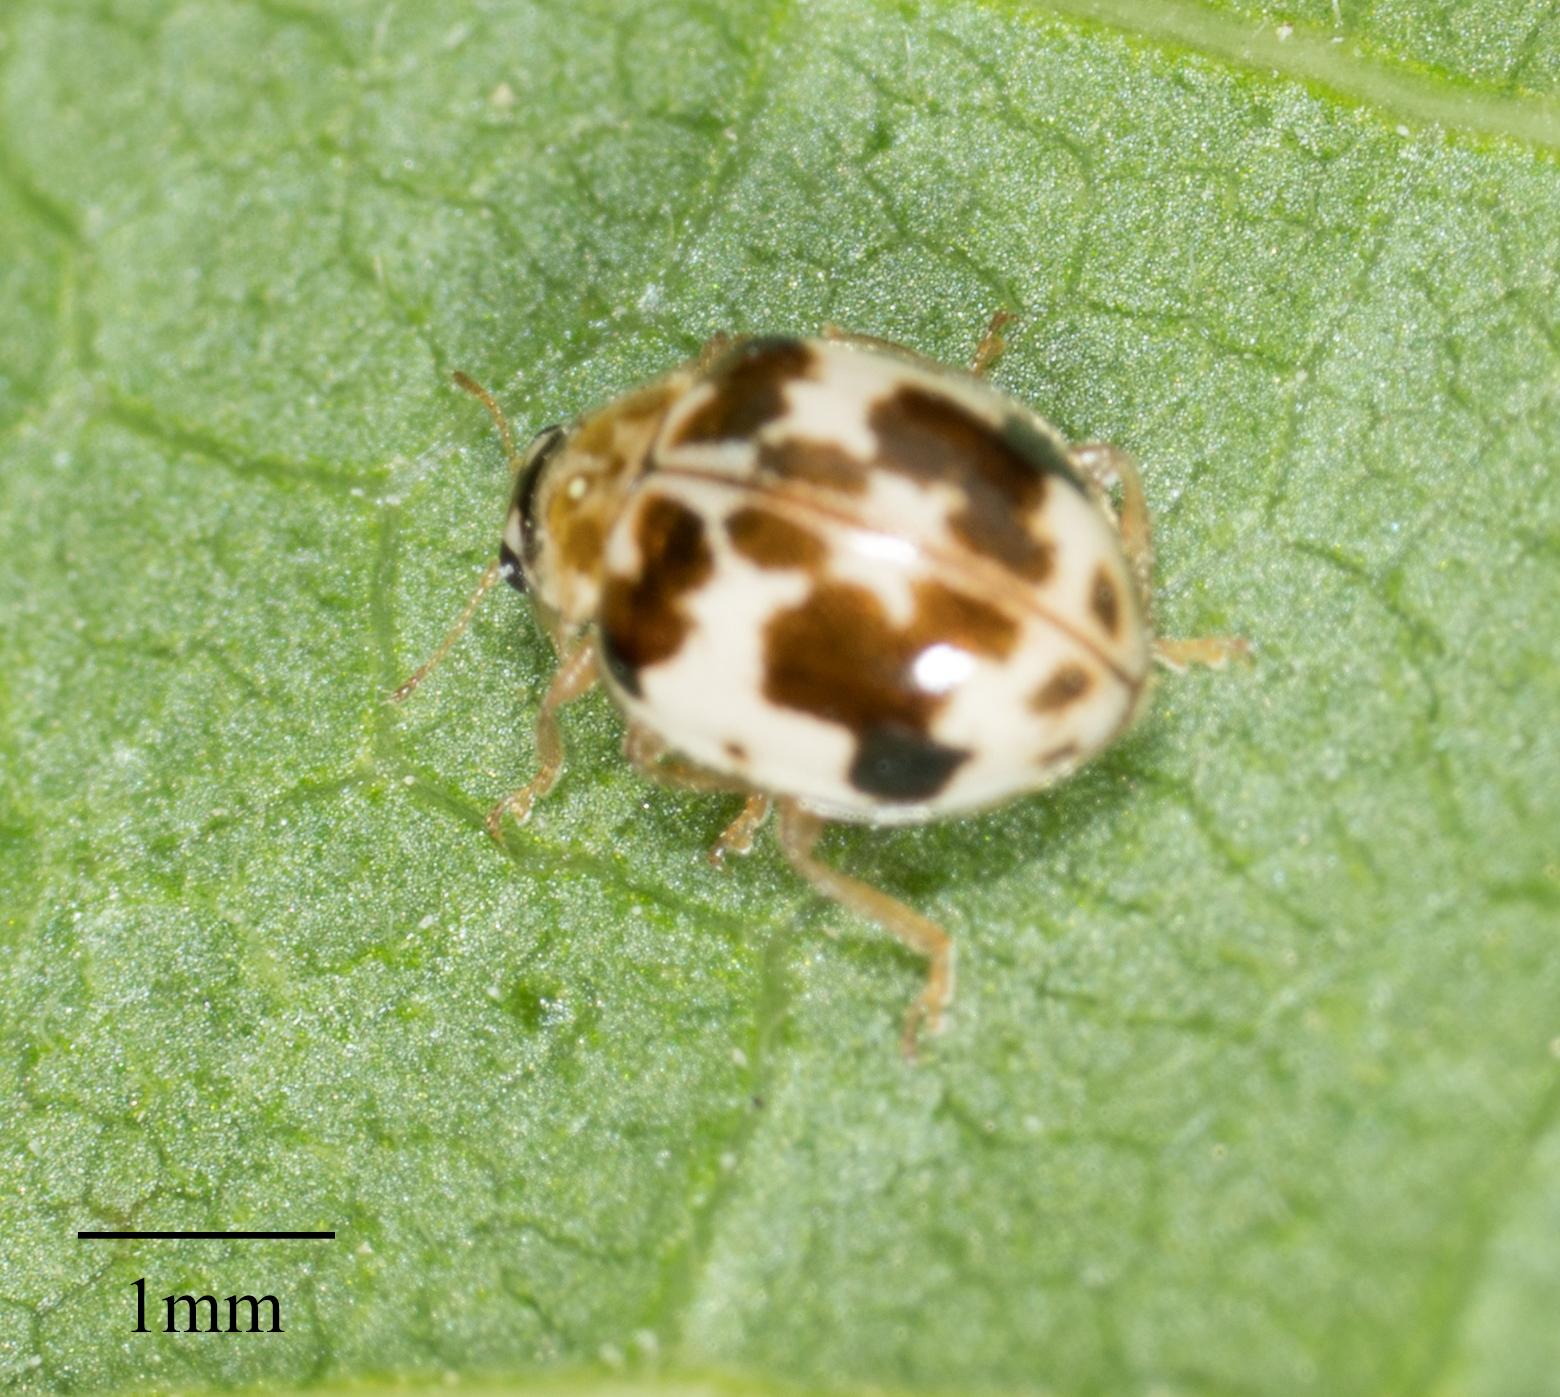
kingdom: Animalia
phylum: Arthropoda
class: Insecta
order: Coleoptera
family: Coccinellidae
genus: Psyllobora
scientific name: Psyllobora borealis
